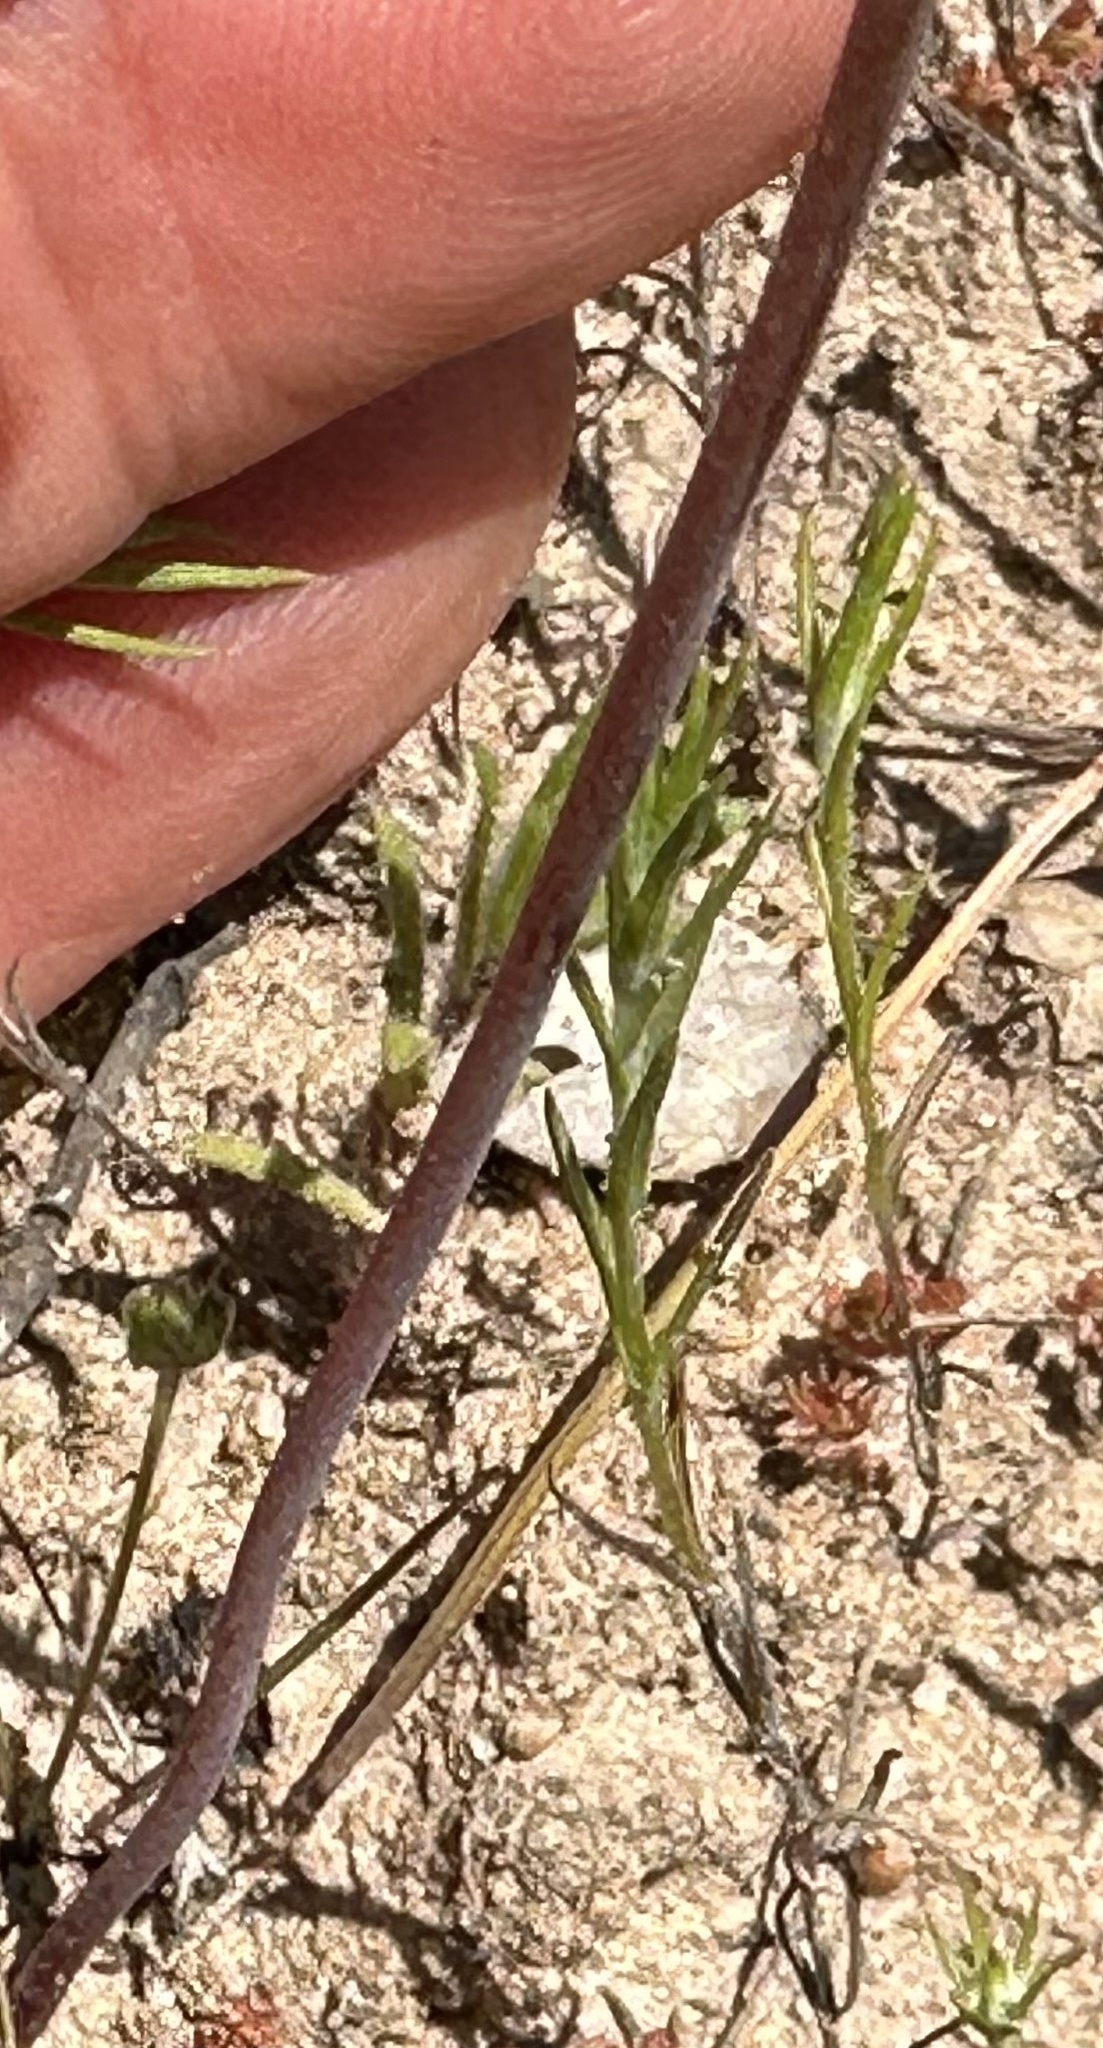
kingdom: Plantae
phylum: Tracheophyta
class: Liliopsida
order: Asparagales
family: Asparagaceae
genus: Muilla
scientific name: Muilla maritima
